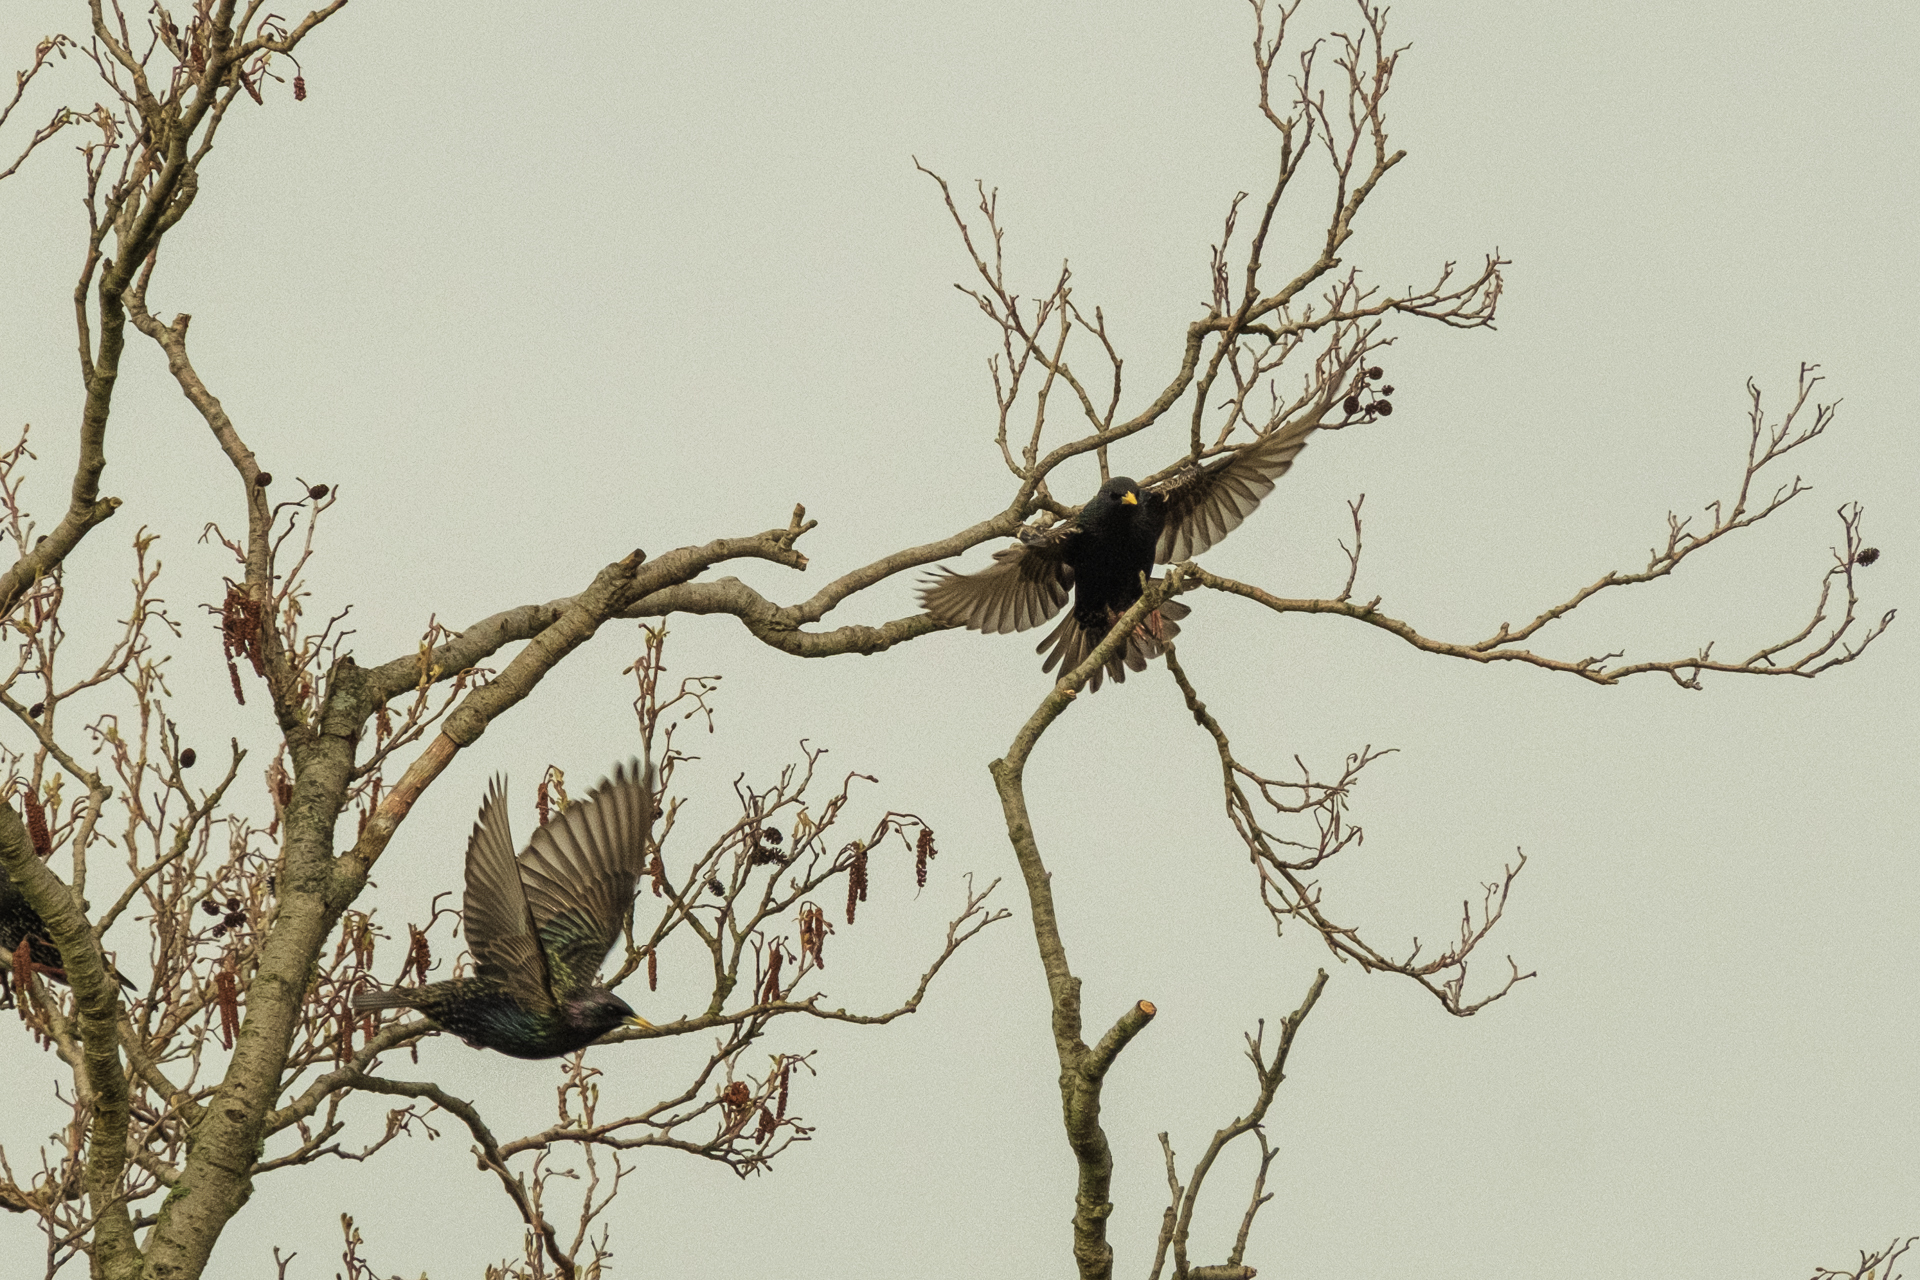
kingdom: Animalia
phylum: Chordata
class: Aves
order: Passeriformes
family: Sturnidae
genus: Sturnus
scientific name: Sturnus vulgaris
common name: Common starling
